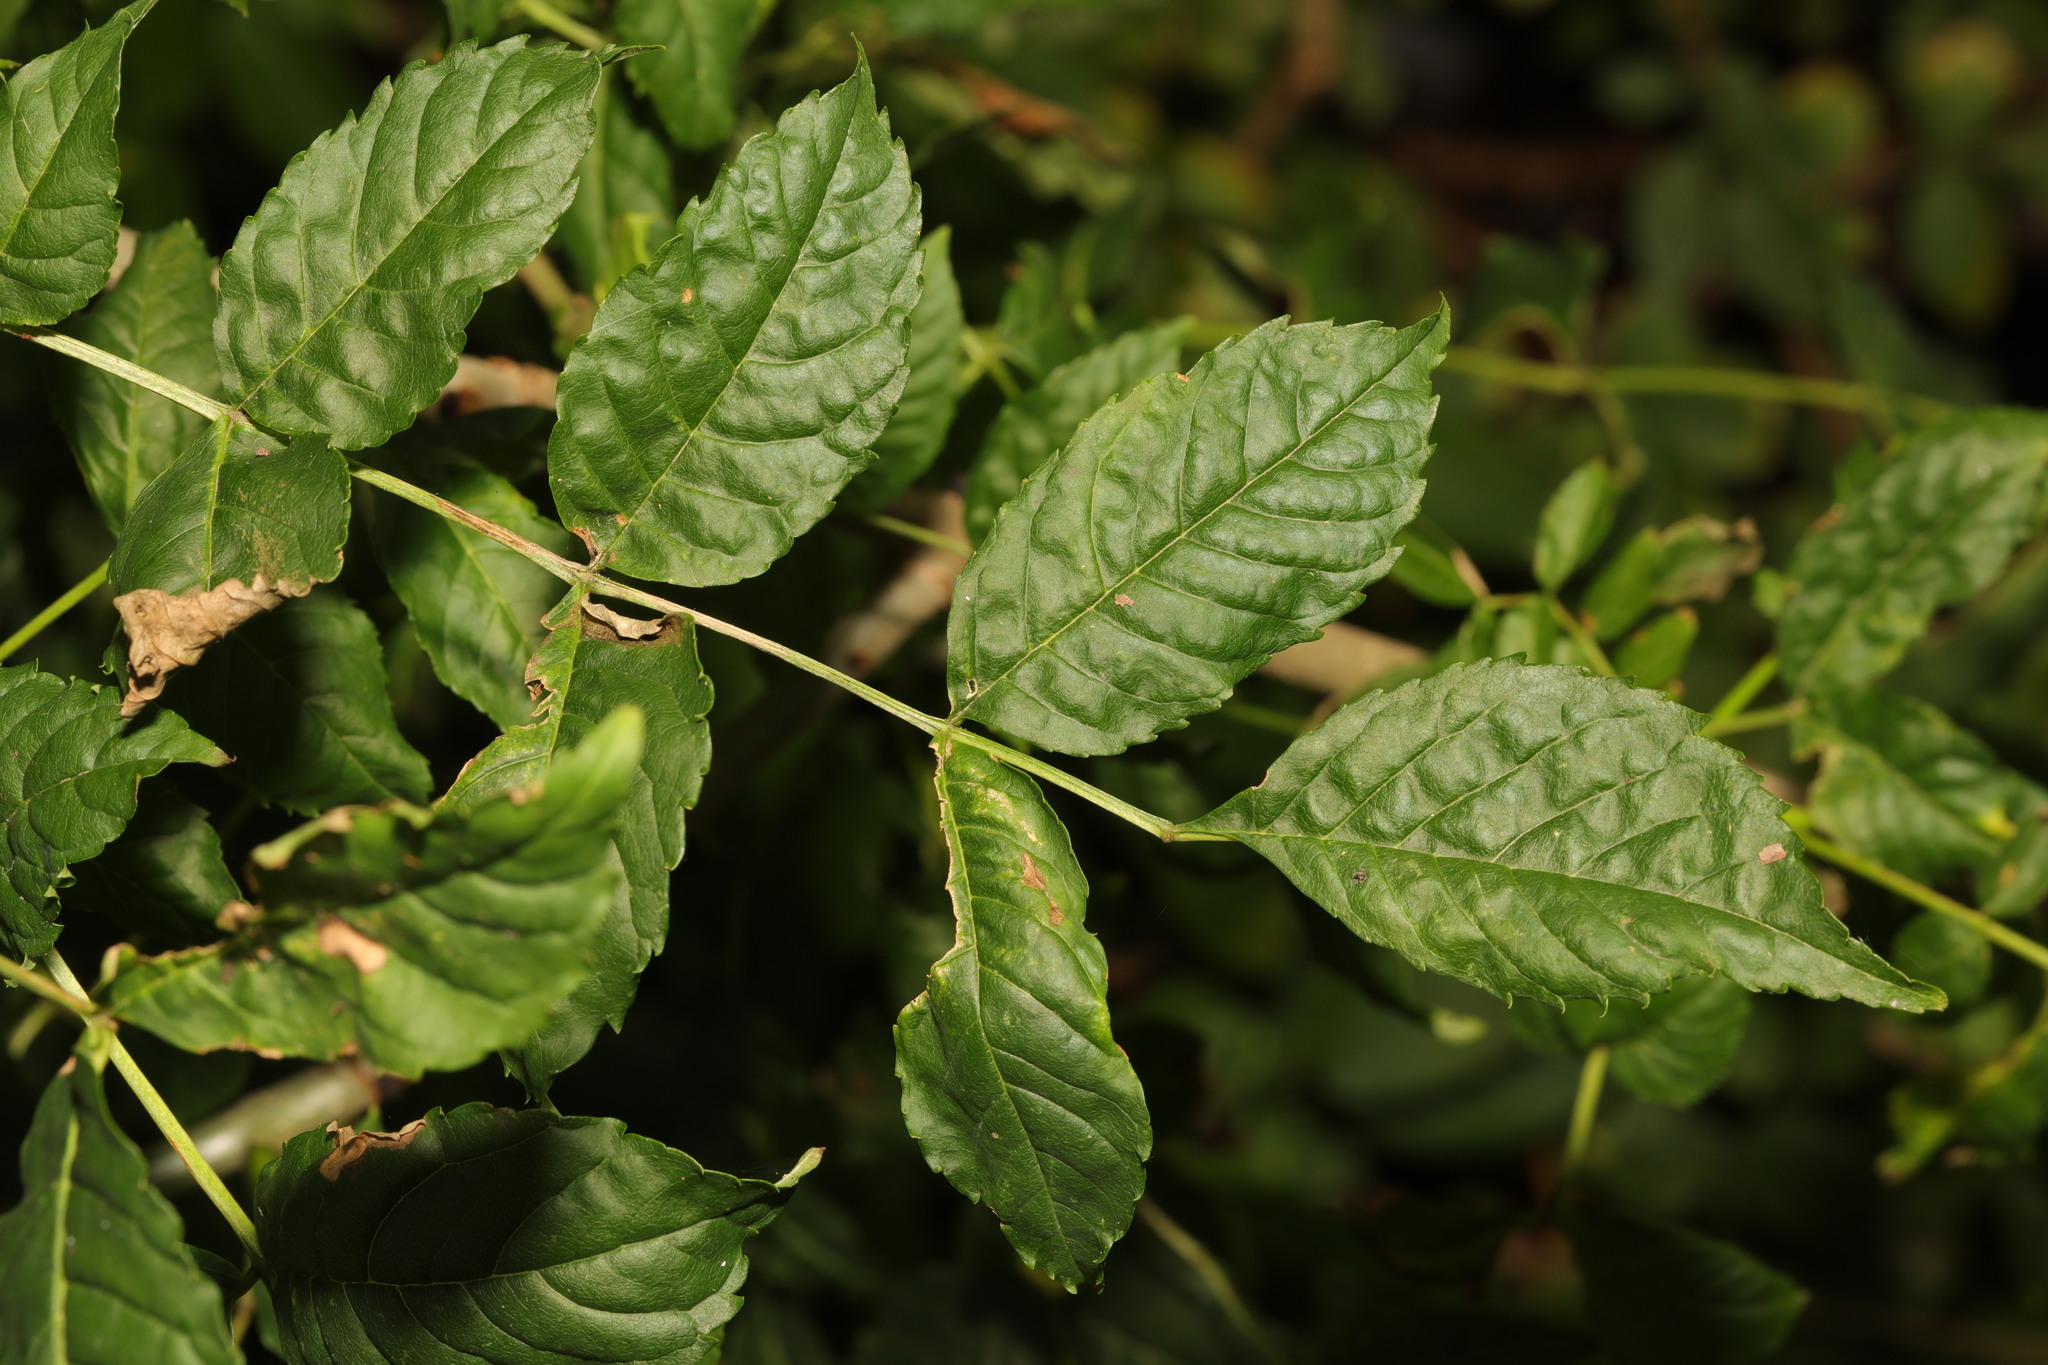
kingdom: Plantae
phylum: Tracheophyta
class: Magnoliopsida
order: Lamiales
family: Oleaceae
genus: Fraxinus
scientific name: Fraxinus excelsior
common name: European ash
